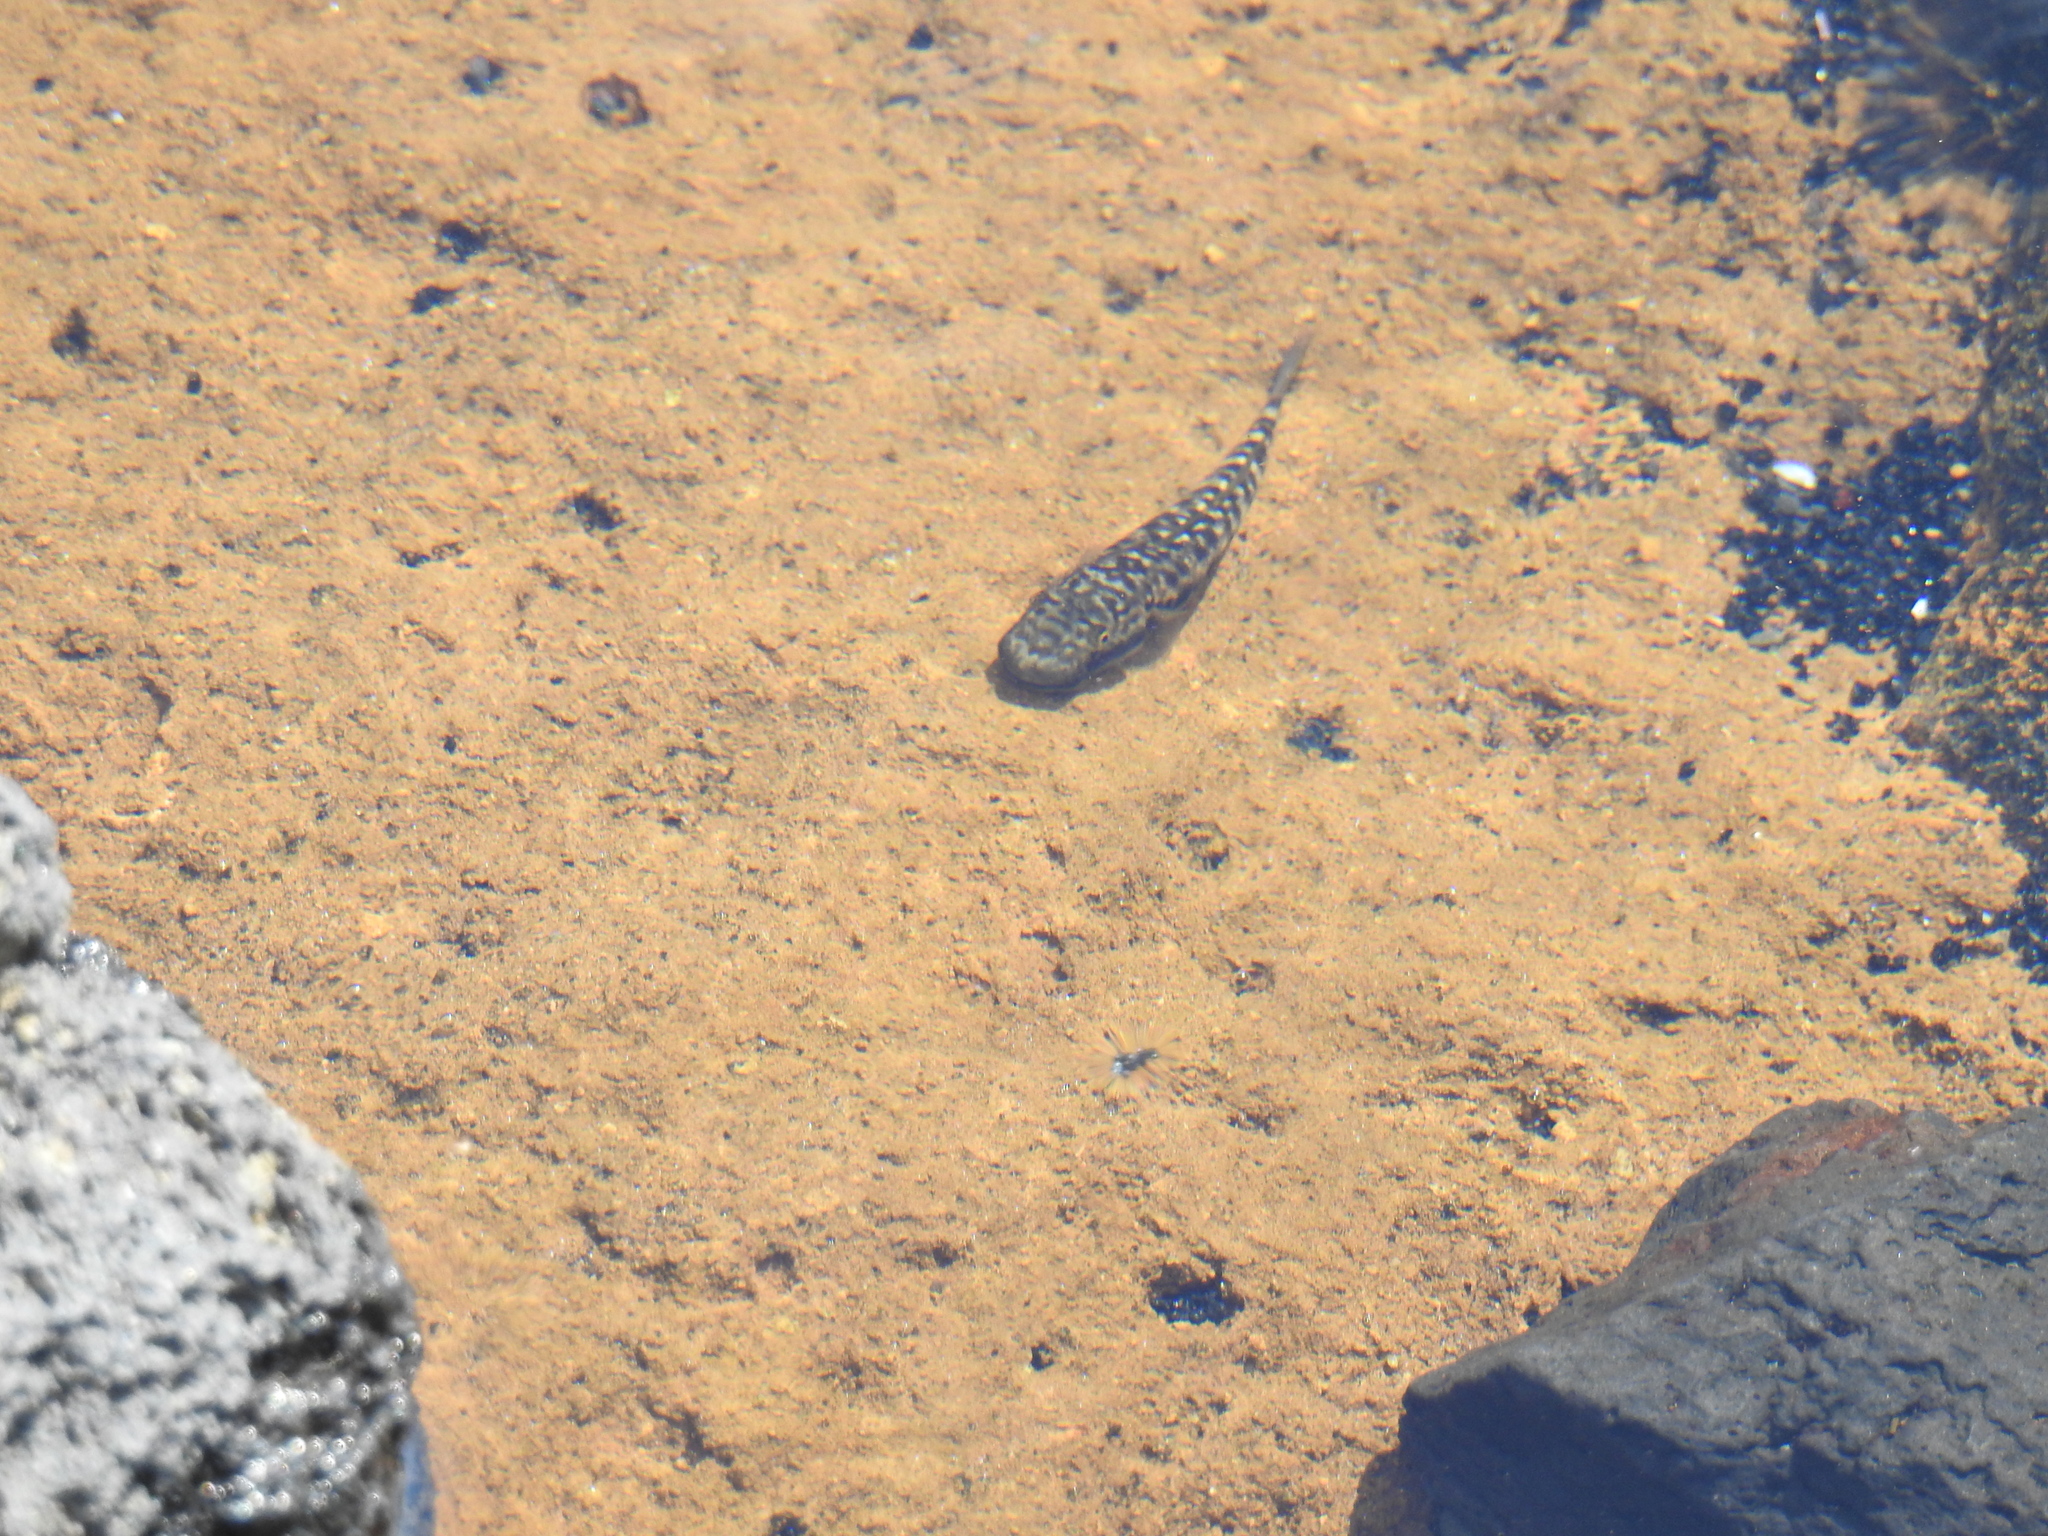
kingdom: Animalia
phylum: Chordata
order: Perciformes
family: Gobiidae
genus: Sicyopterus
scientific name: Sicyopterus stimpsoni
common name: Stimpson's goby
